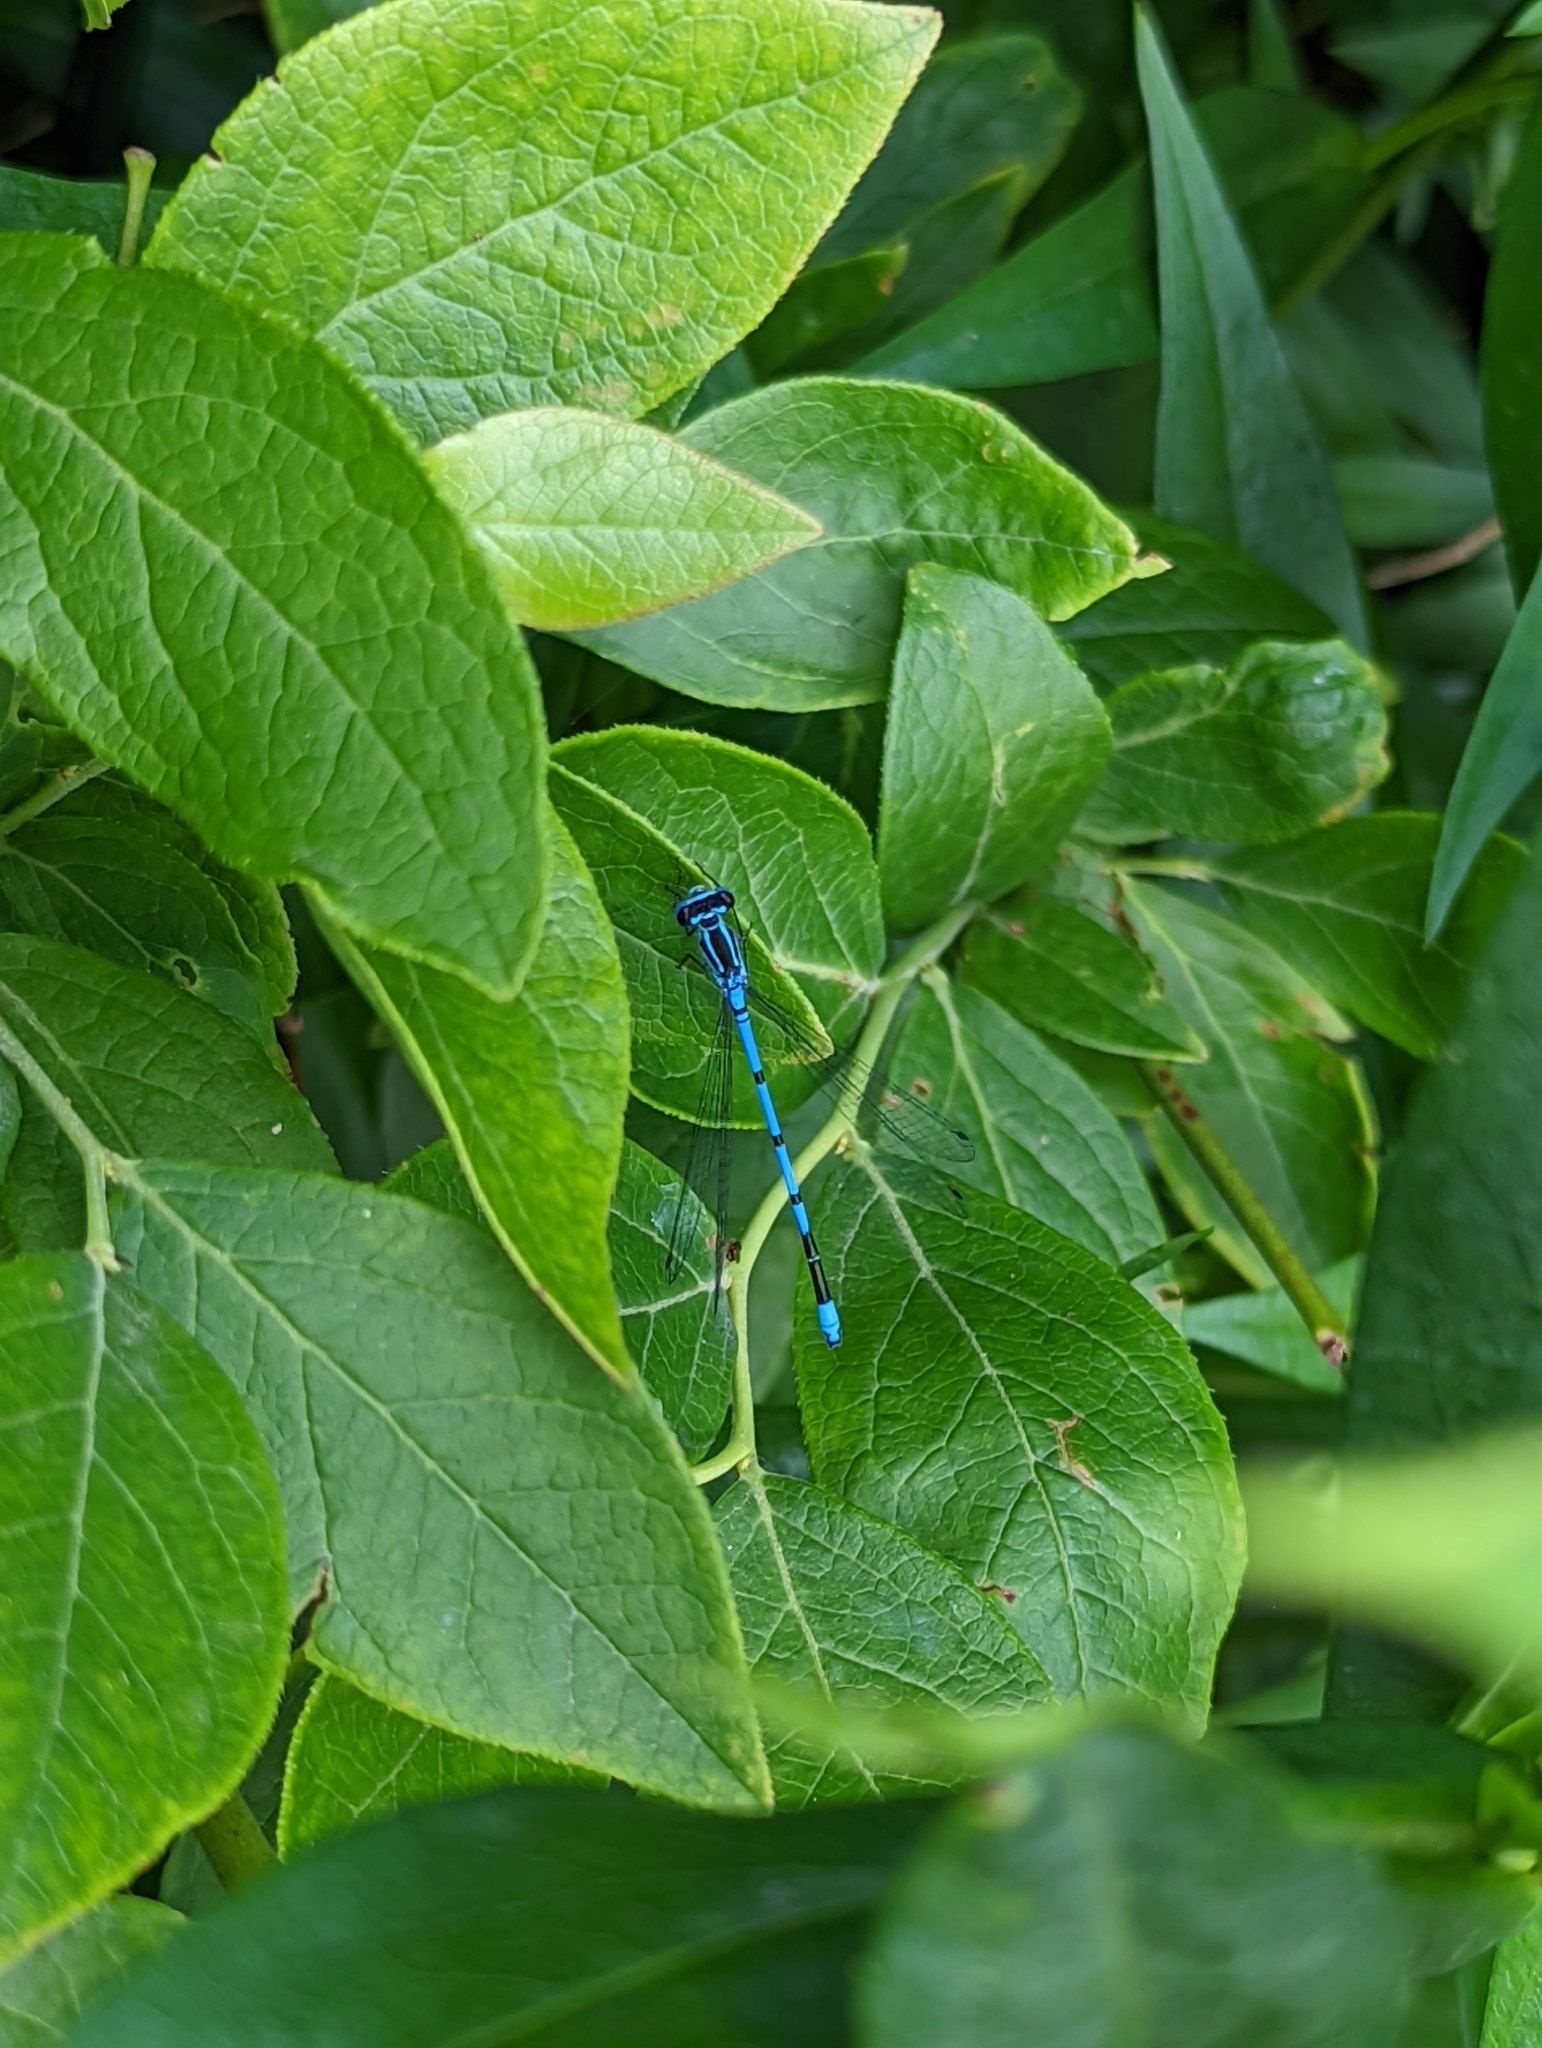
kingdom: Animalia
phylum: Arthropoda
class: Insecta
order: Odonata
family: Coenagrionidae
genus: Coenagrion
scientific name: Coenagrion puella
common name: Azure damselfly
